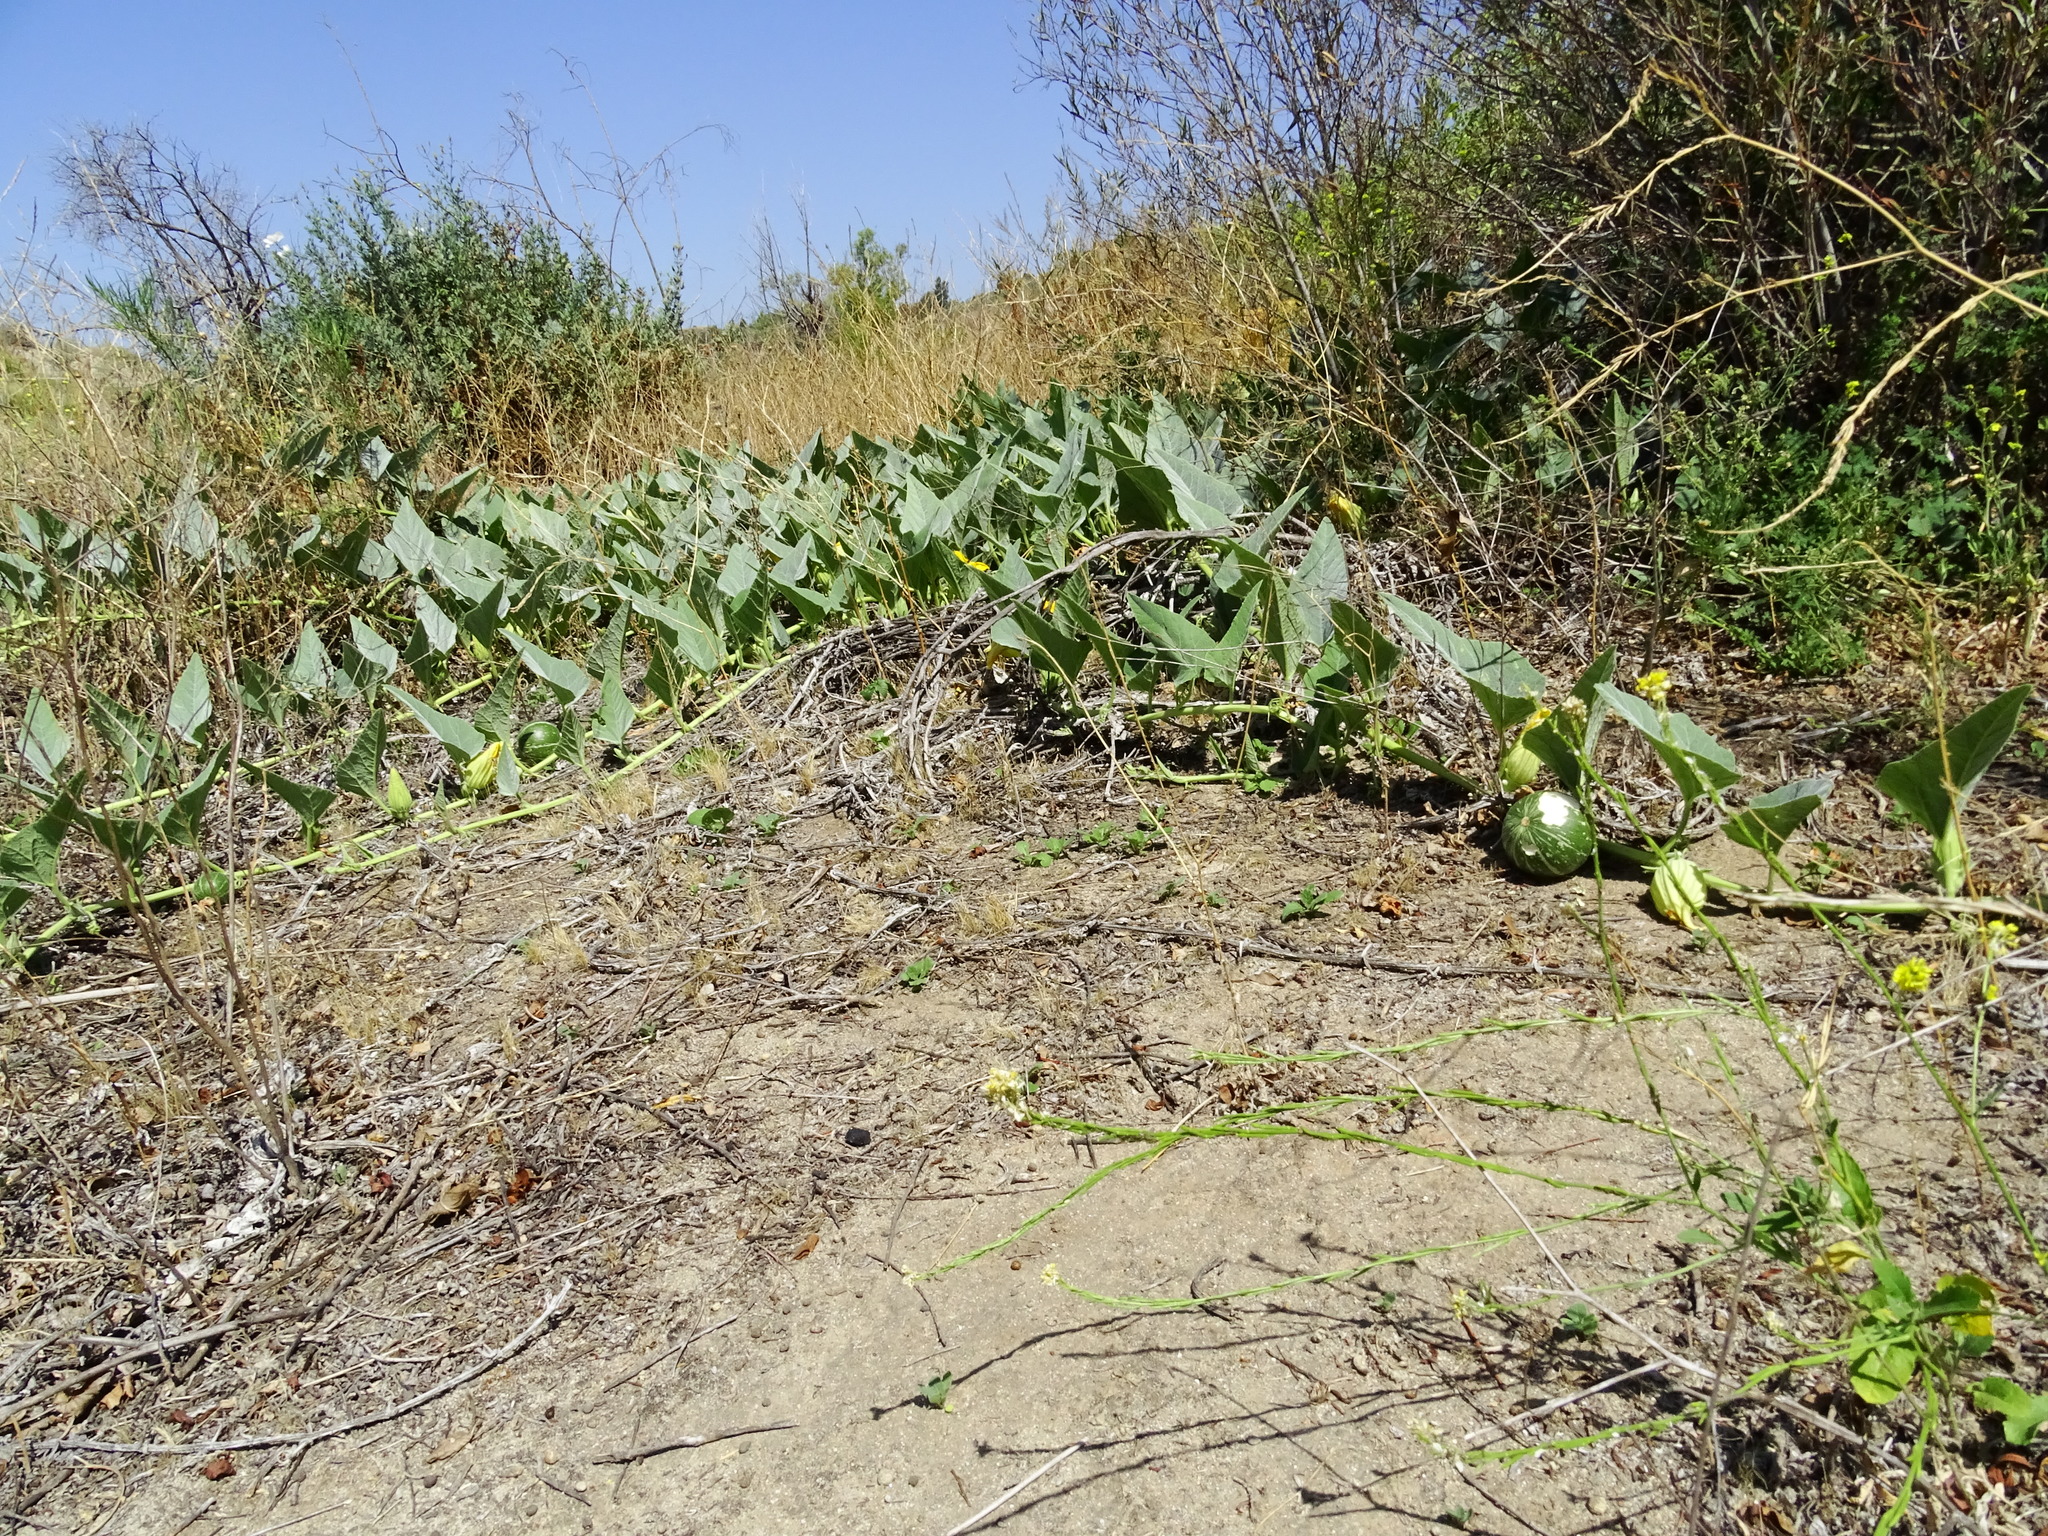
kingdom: Plantae
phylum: Tracheophyta
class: Magnoliopsida
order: Cucurbitales
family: Cucurbitaceae
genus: Cucurbita
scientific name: Cucurbita foetidissima
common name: Buffalo gourd
